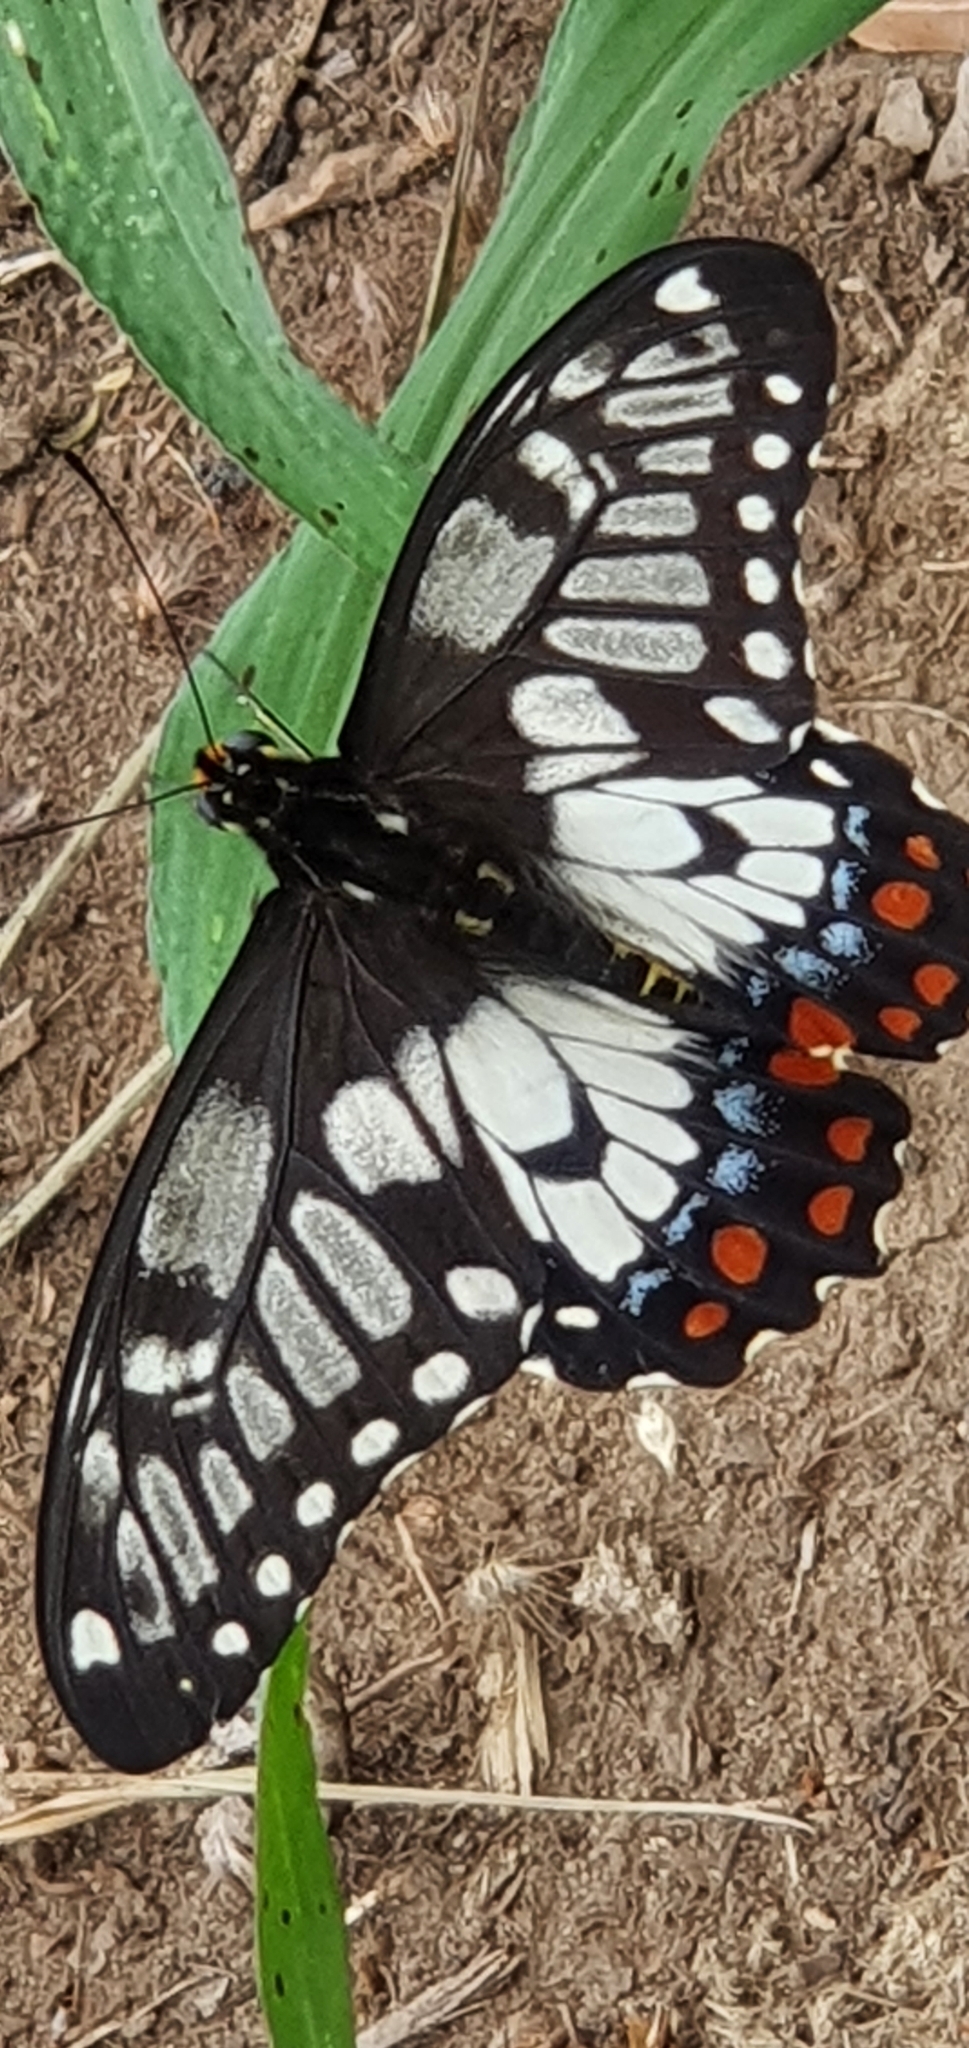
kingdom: Animalia
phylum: Arthropoda
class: Insecta
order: Lepidoptera
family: Papilionidae
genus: Papilio
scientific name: Papilio anactus
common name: Dingy swallowtail
